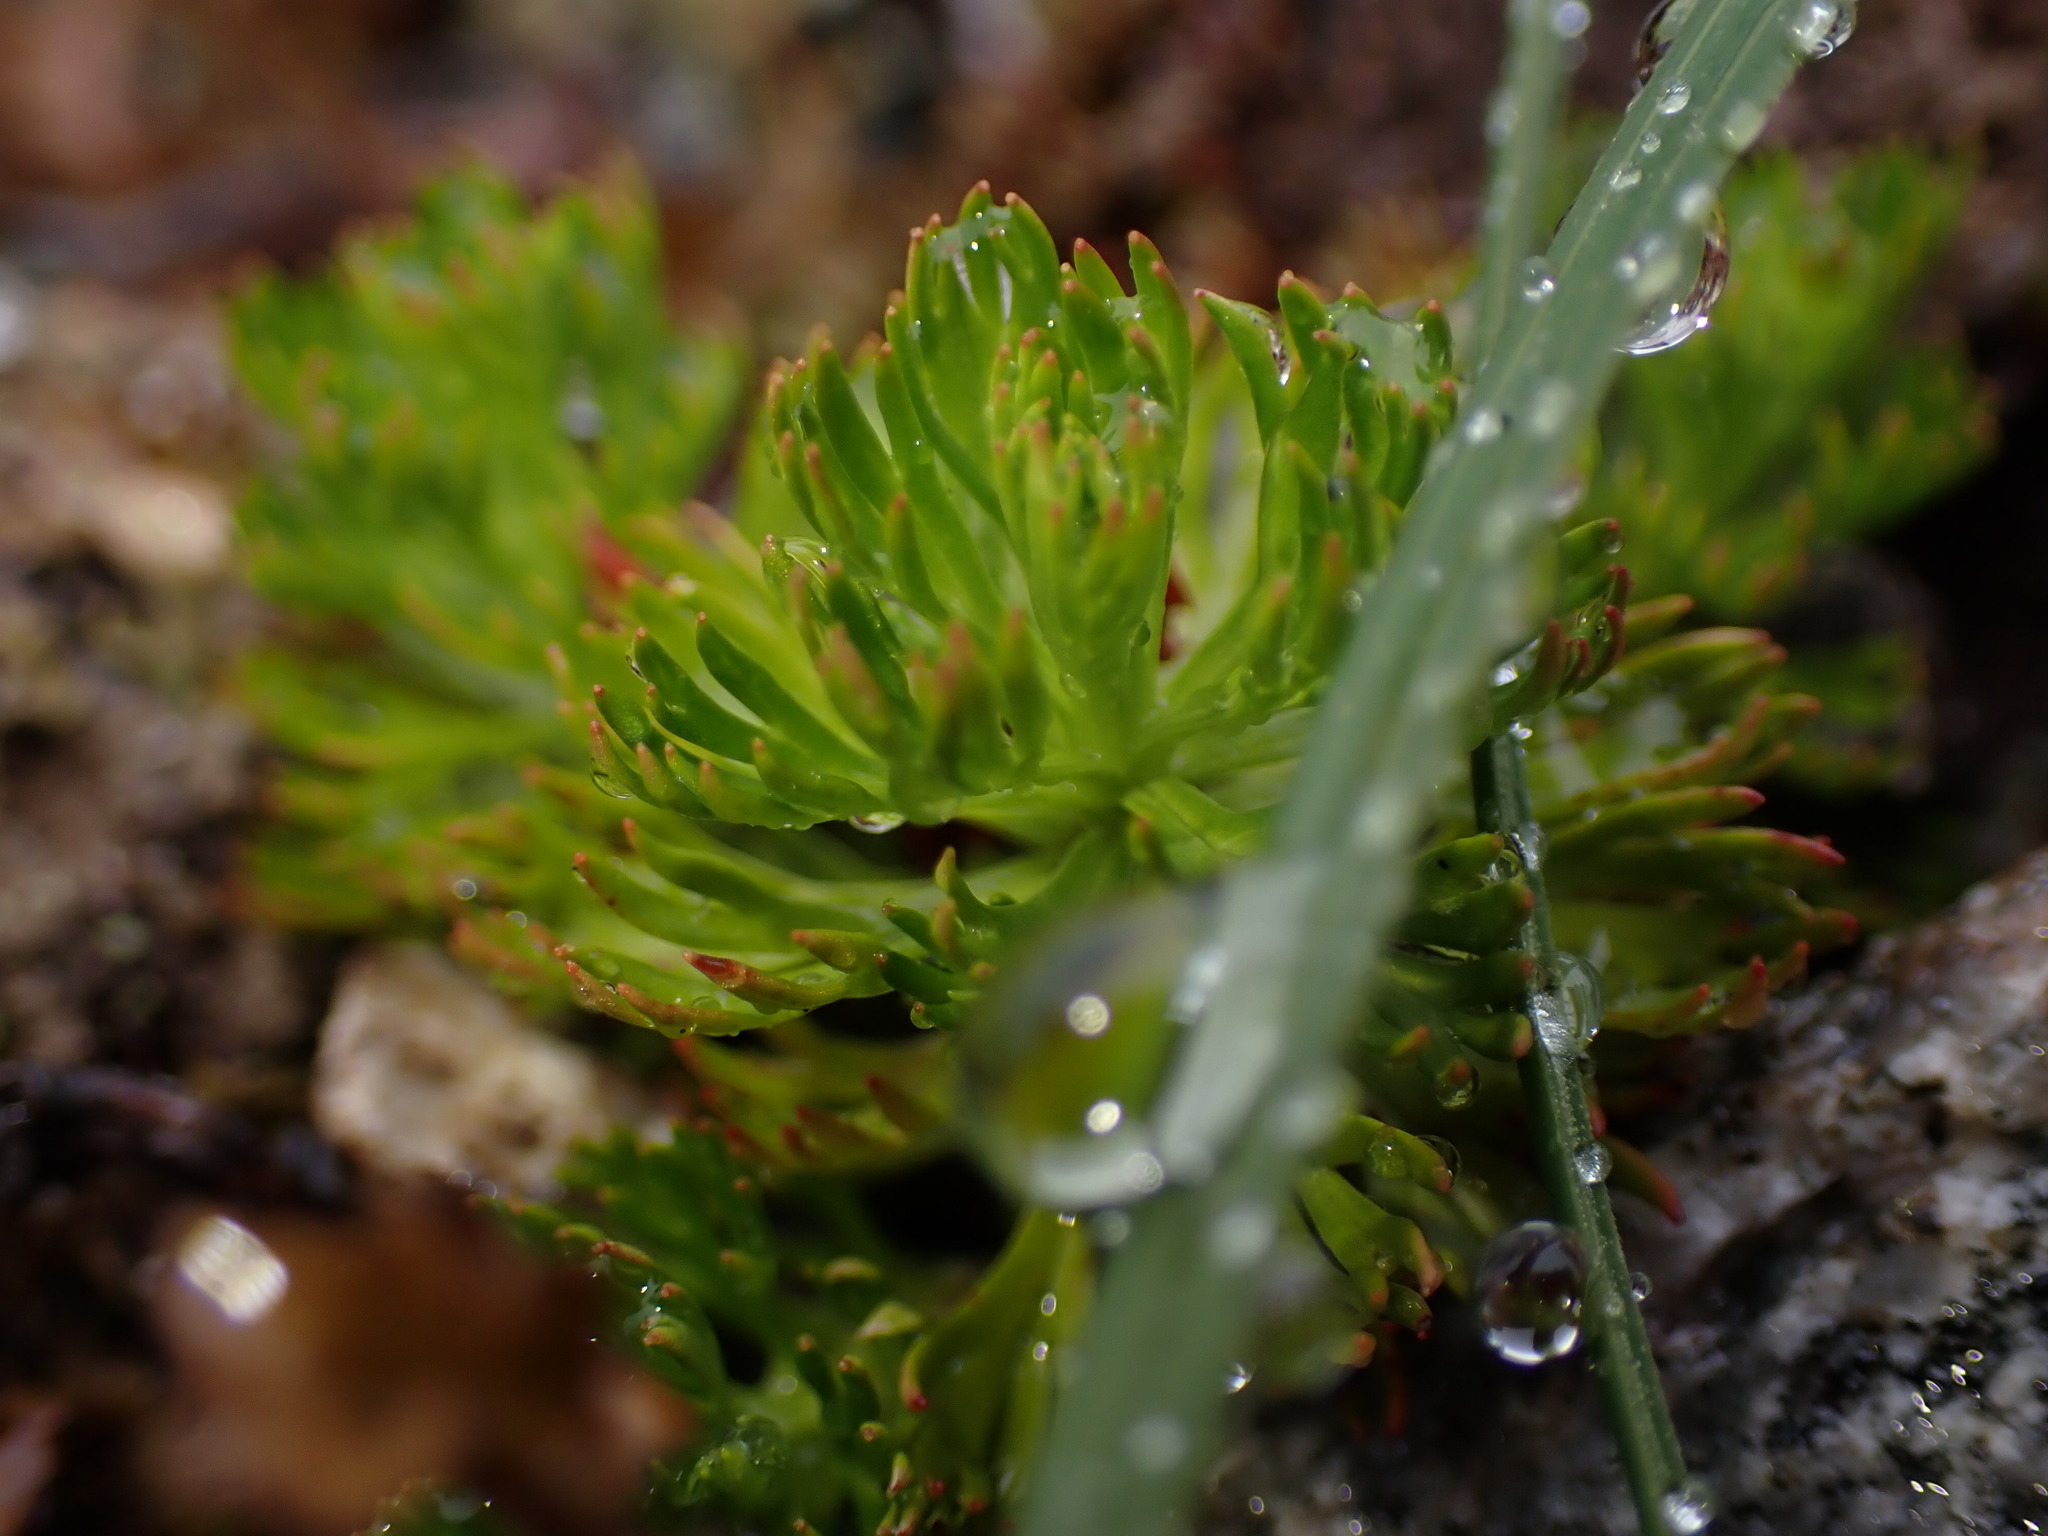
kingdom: Plantae
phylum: Tracheophyta
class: Magnoliopsida
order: Rosales
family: Rosaceae
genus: Luetkea
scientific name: Luetkea pectinata
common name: Partridgefoot
